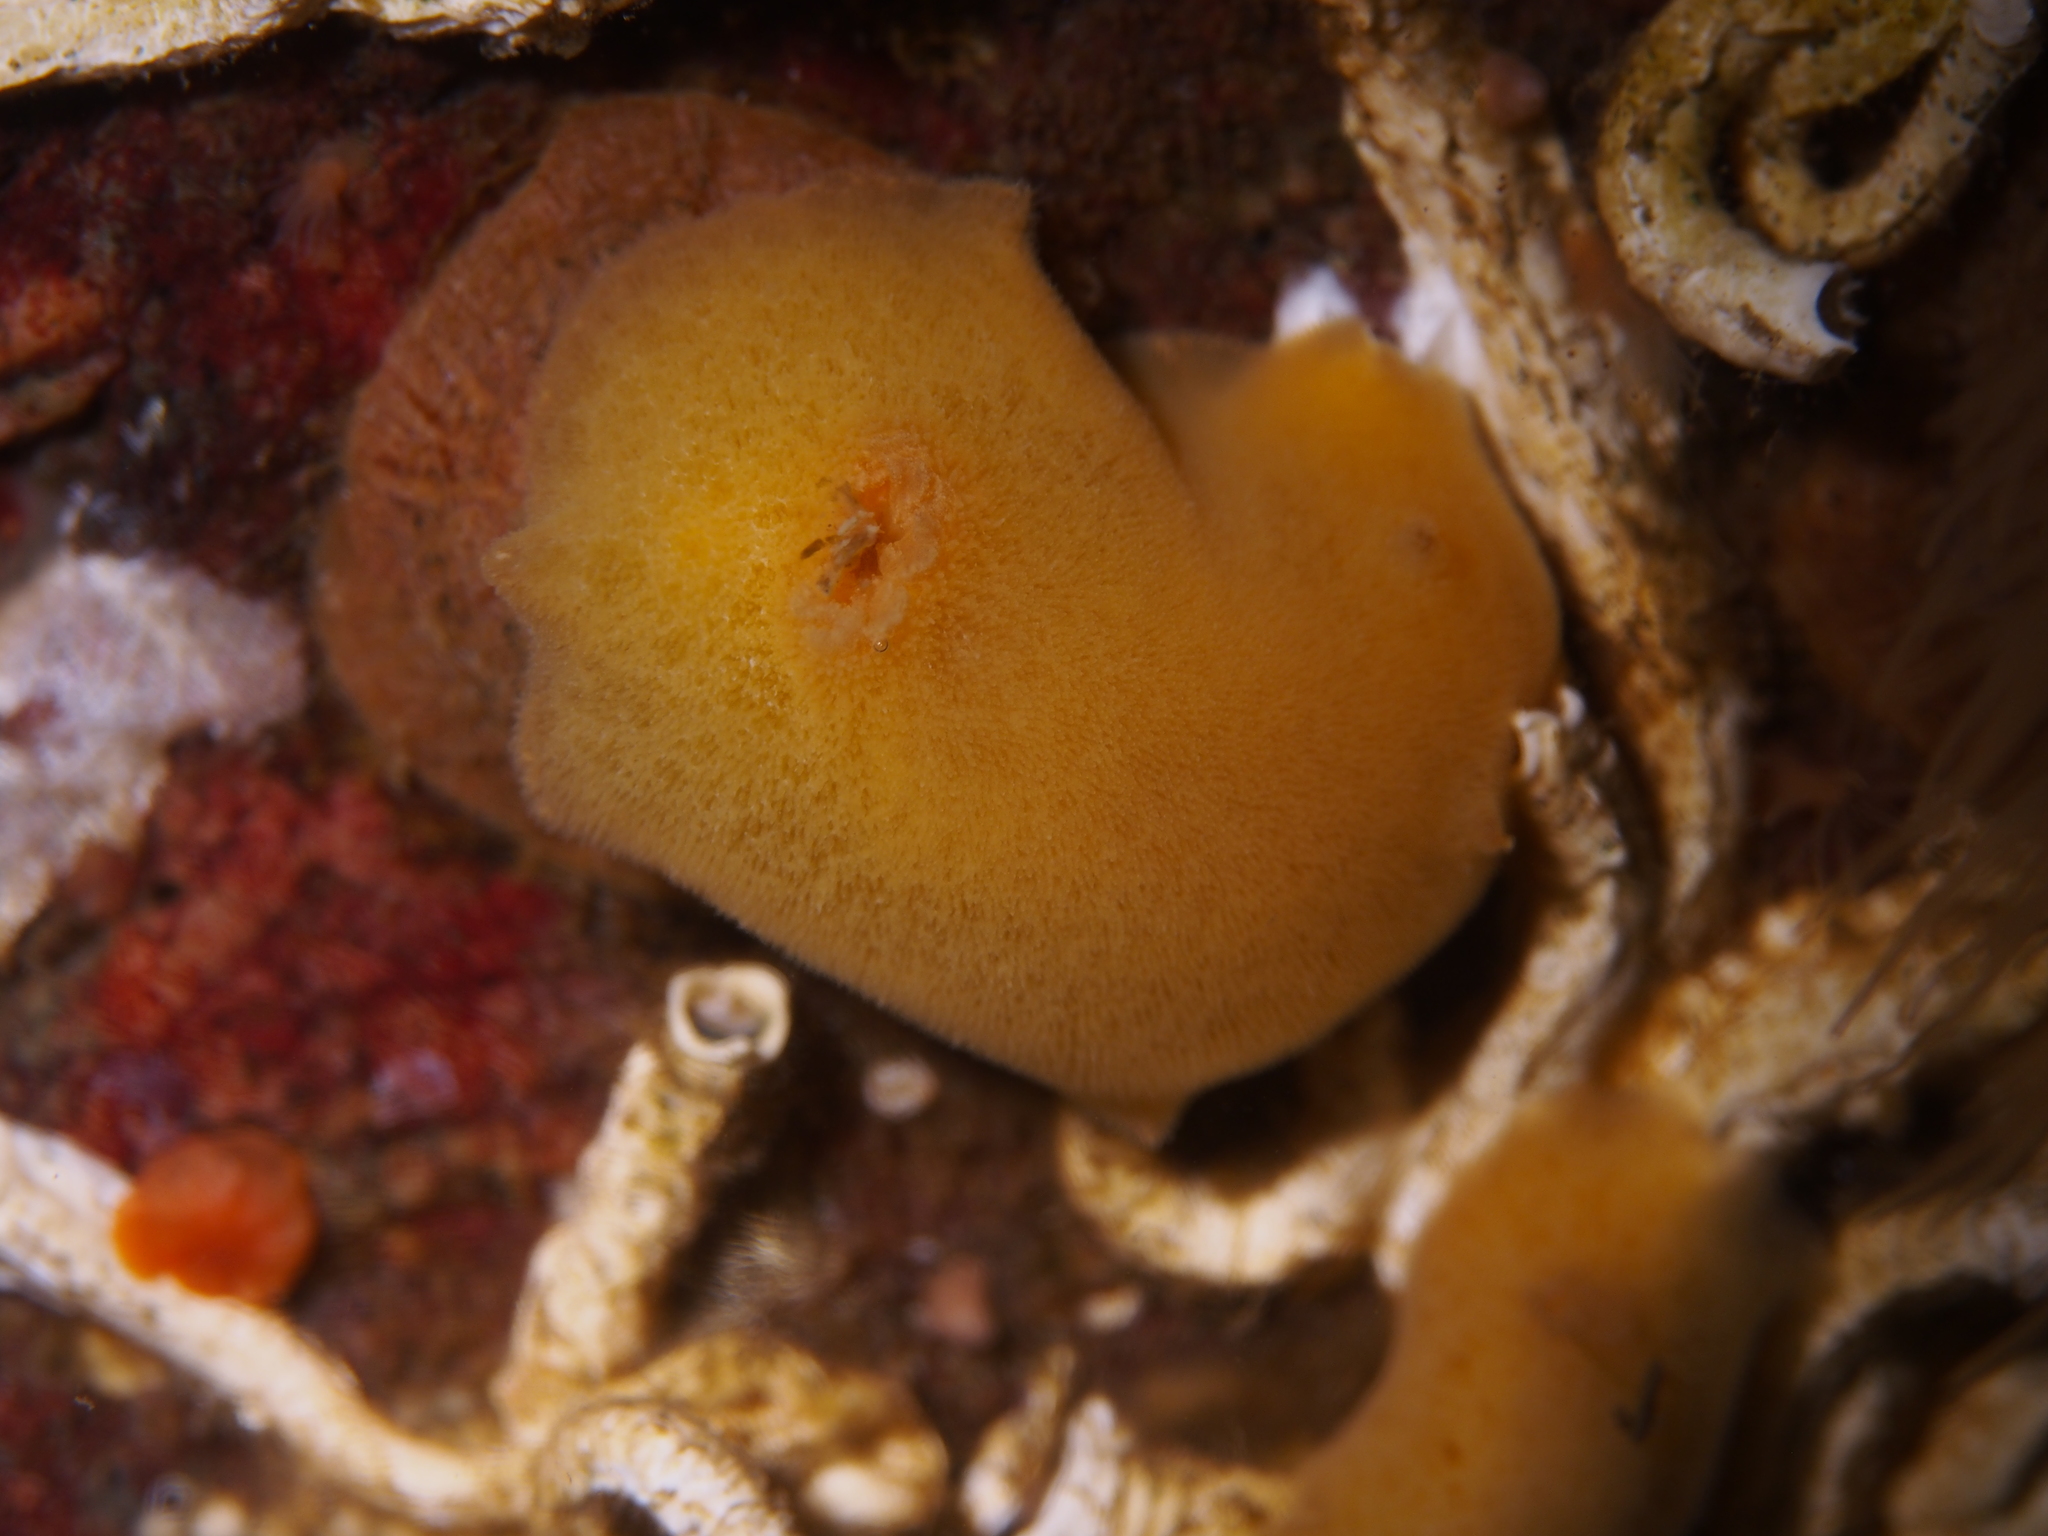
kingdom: Animalia
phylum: Mollusca
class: Gastropoda
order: Nudibranchia
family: Discodorididae
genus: Jorunna
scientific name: Jorunna tomentosa
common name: Grey sea slug
